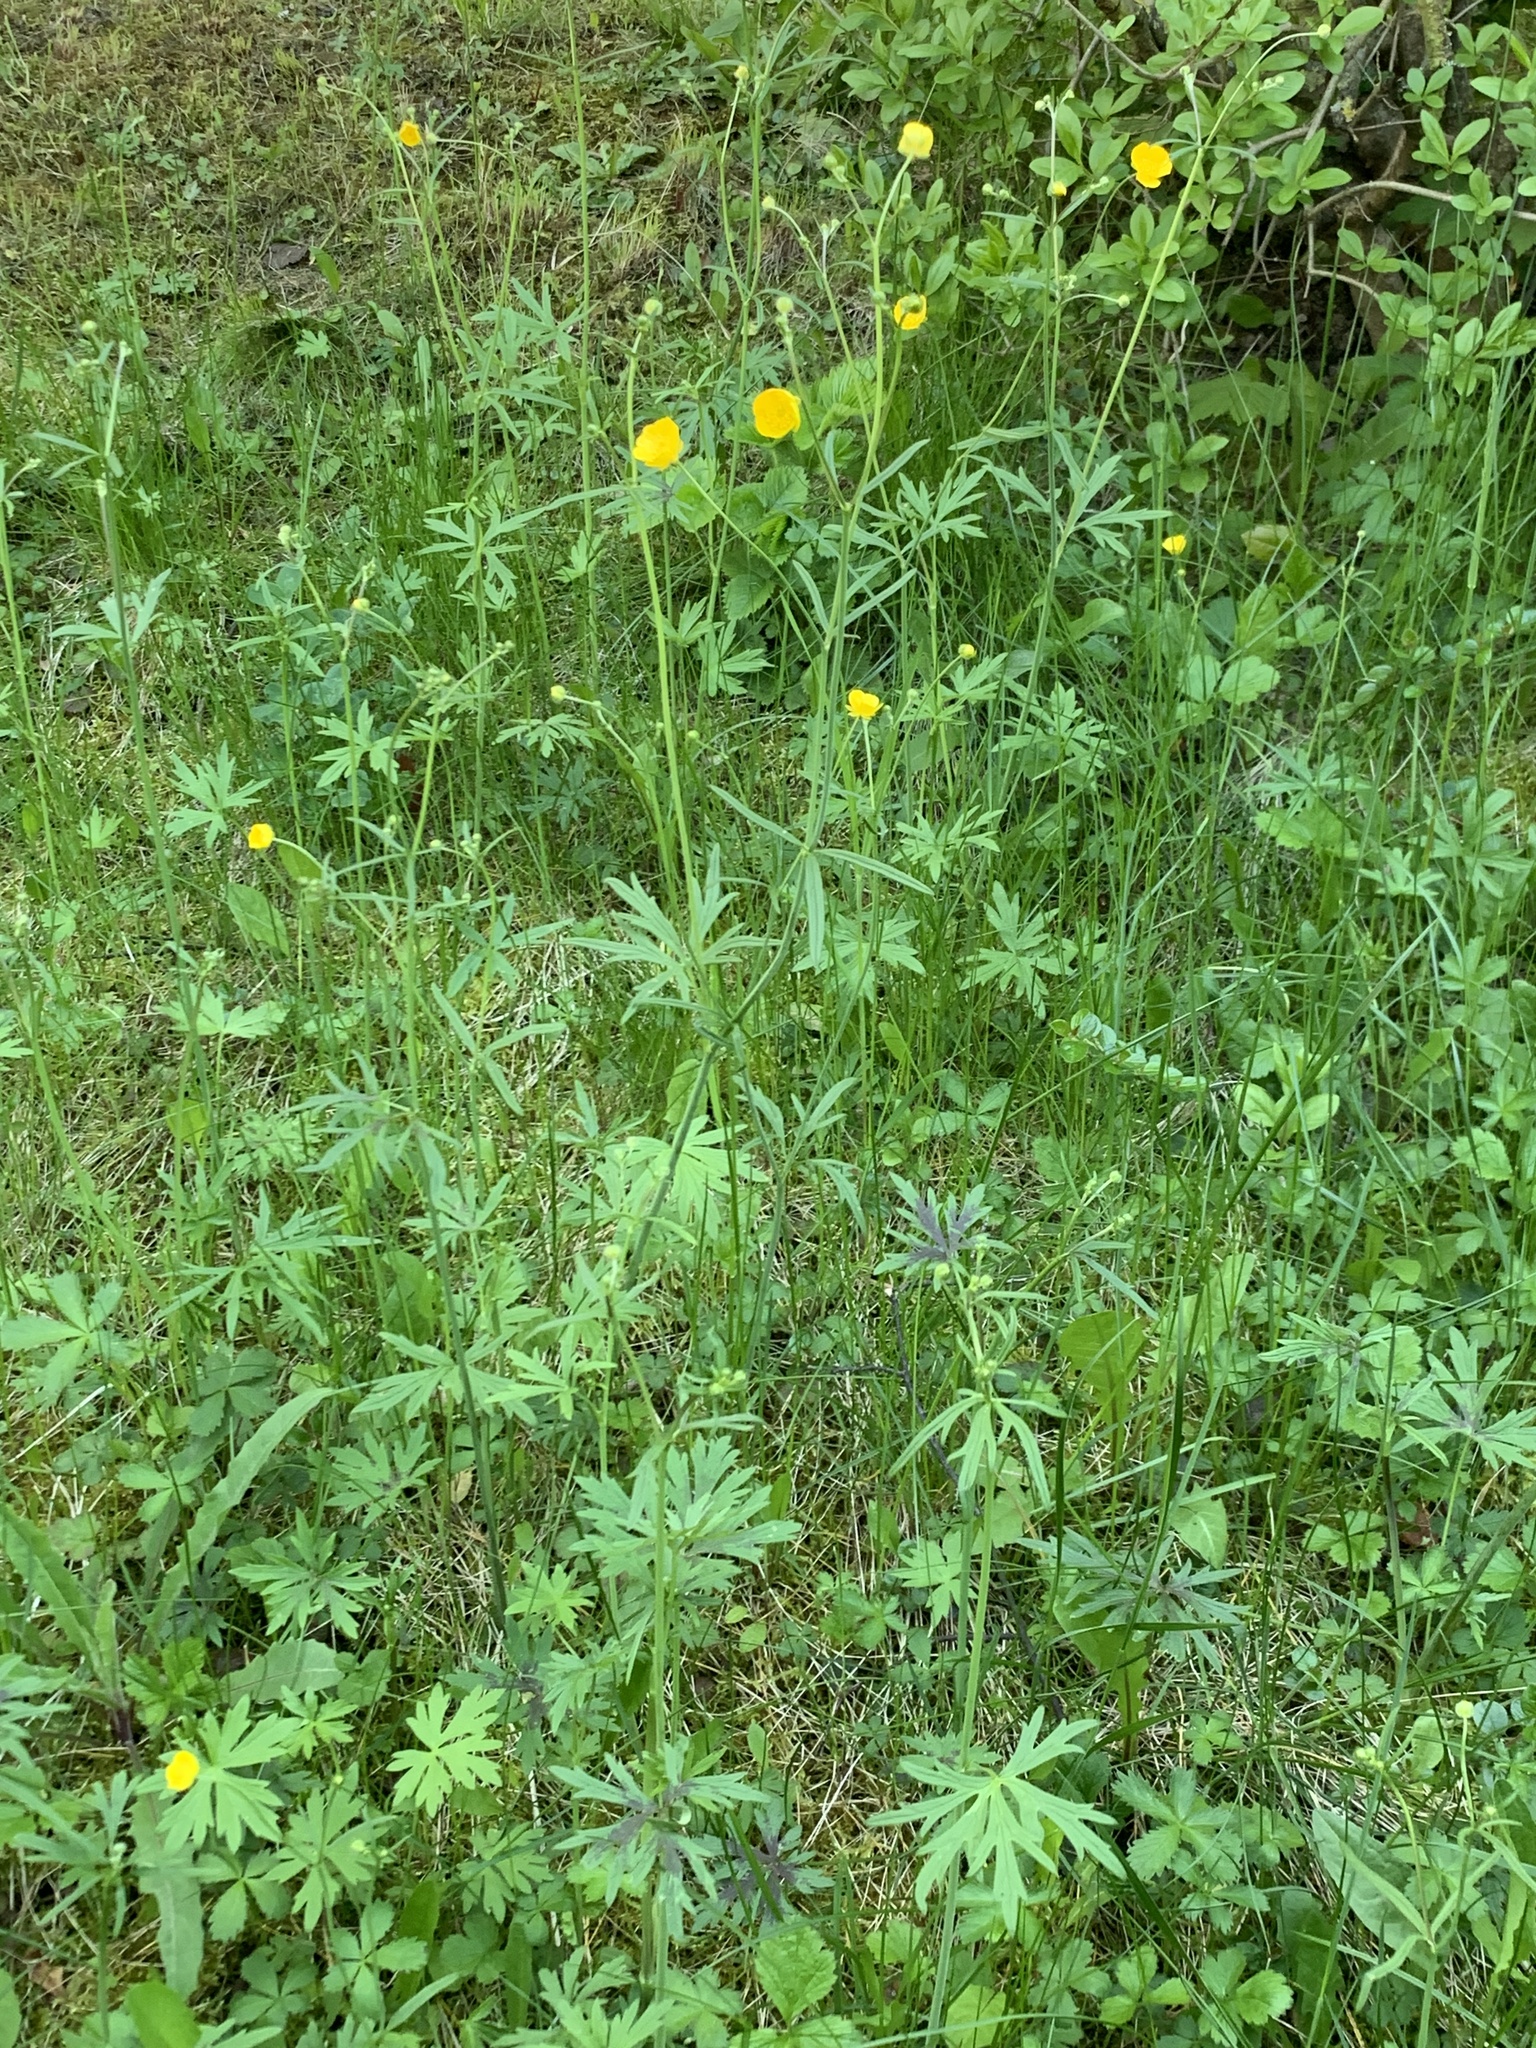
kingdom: Plantae
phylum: Tracheophyta
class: Magnoliopsida
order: Ranunculales
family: Ranunculaceae
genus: Ranunculus
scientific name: Ranunculus acris
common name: Meadow buttercup
